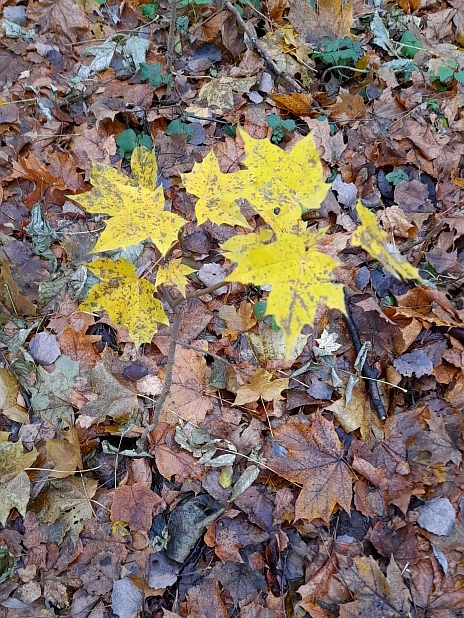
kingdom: Plantae
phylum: Tracheophyta
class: Magnoliopsida
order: Sapindales
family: Sapindaceae
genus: Acer
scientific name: Acer platanoides
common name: Norway maple
